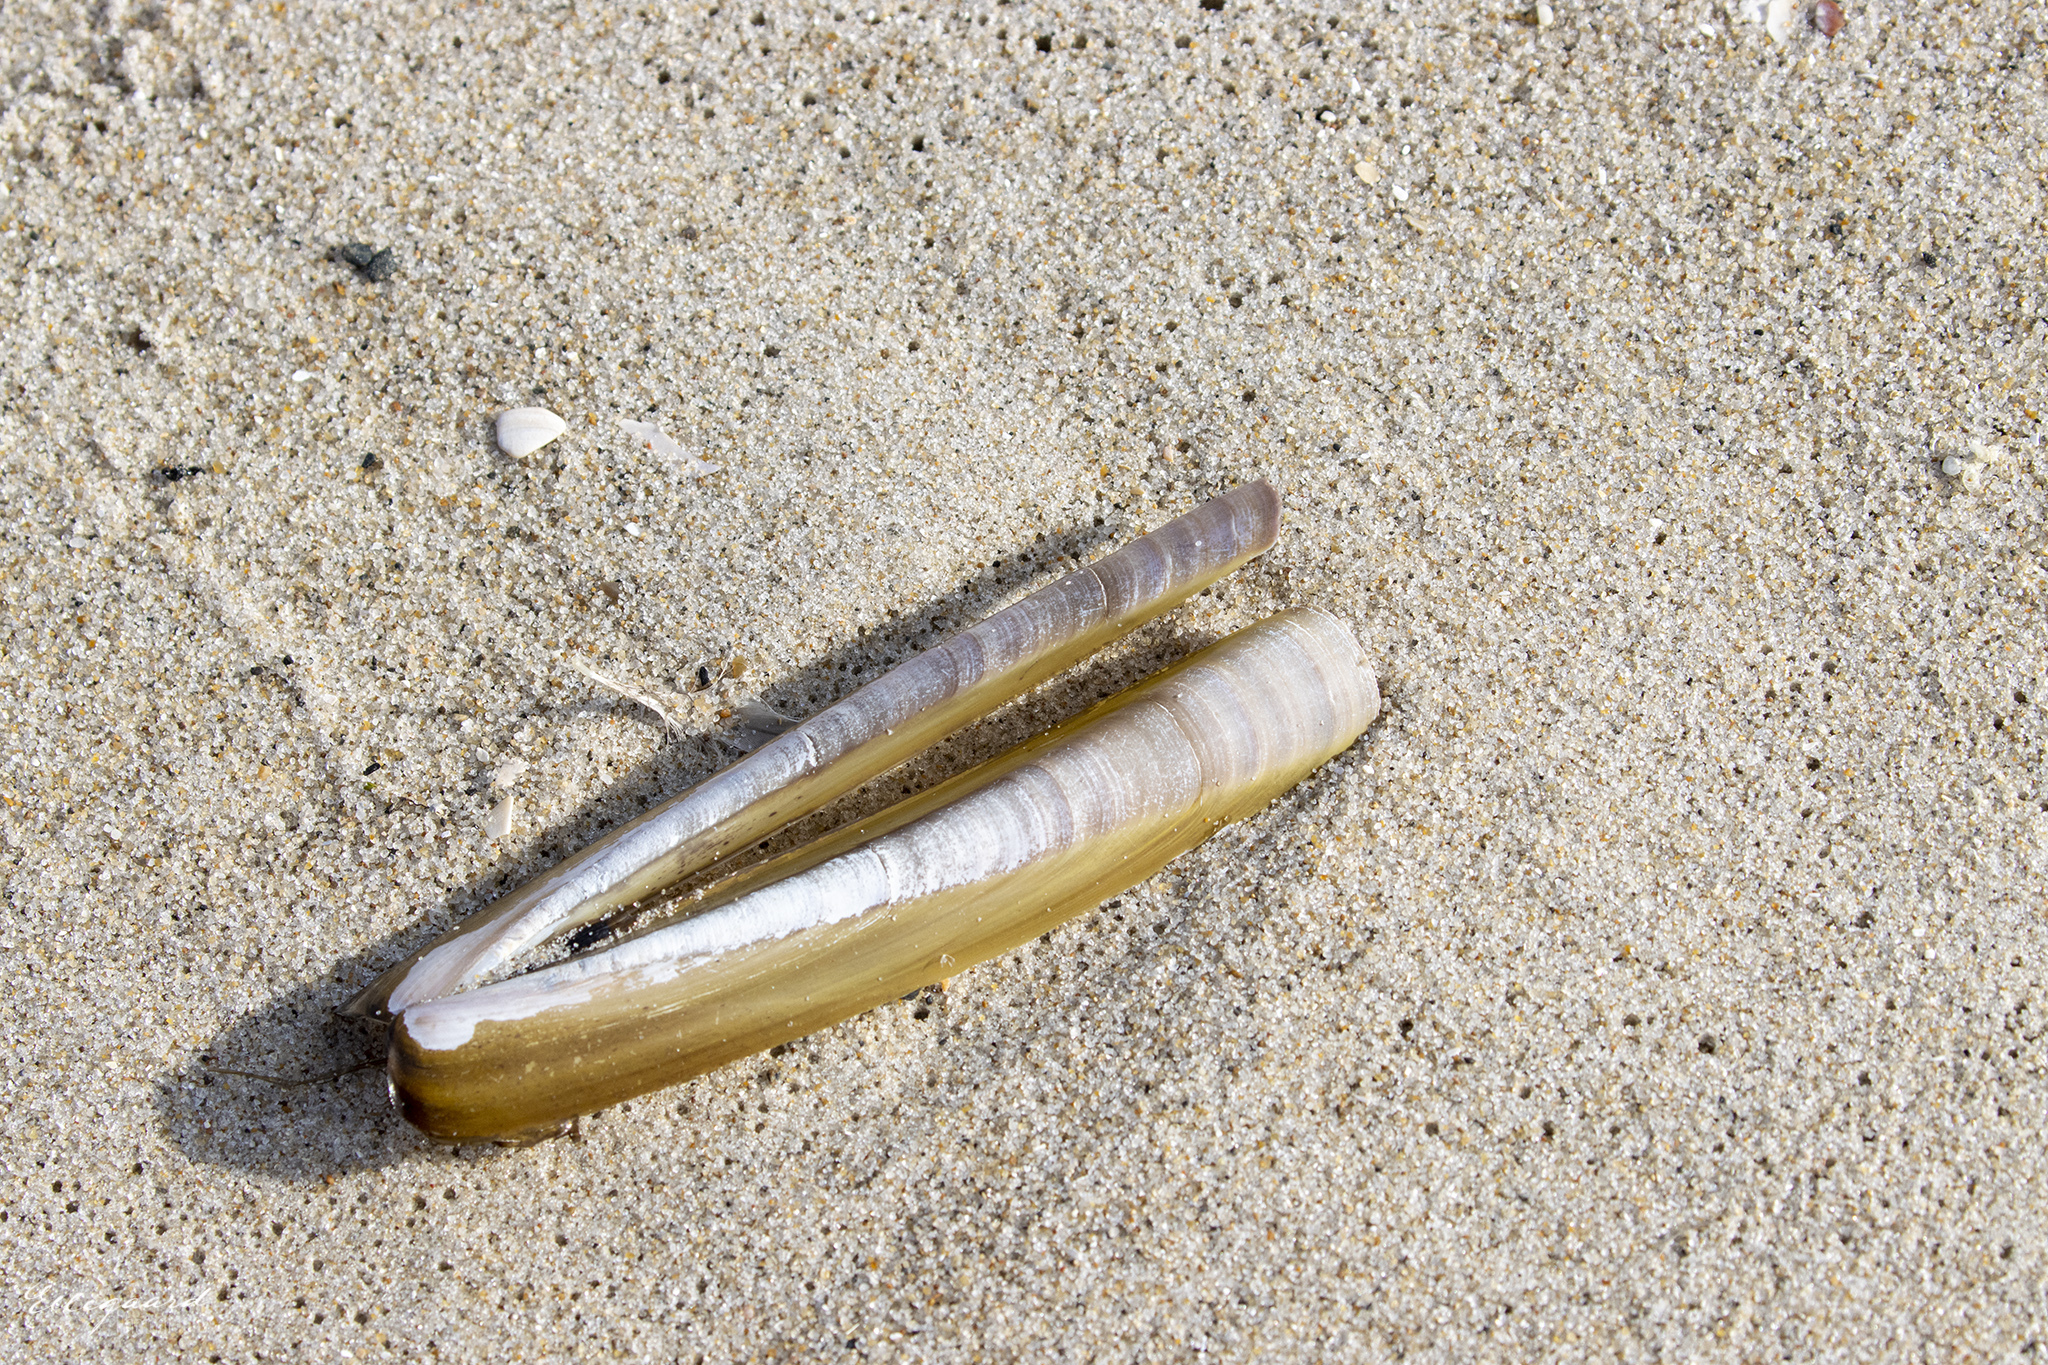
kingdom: Animalia
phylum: Mollusca
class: Bivalvia
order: Adapedonta
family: Pharidae
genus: Ensis
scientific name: Ensis leei
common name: American jack knife clam
